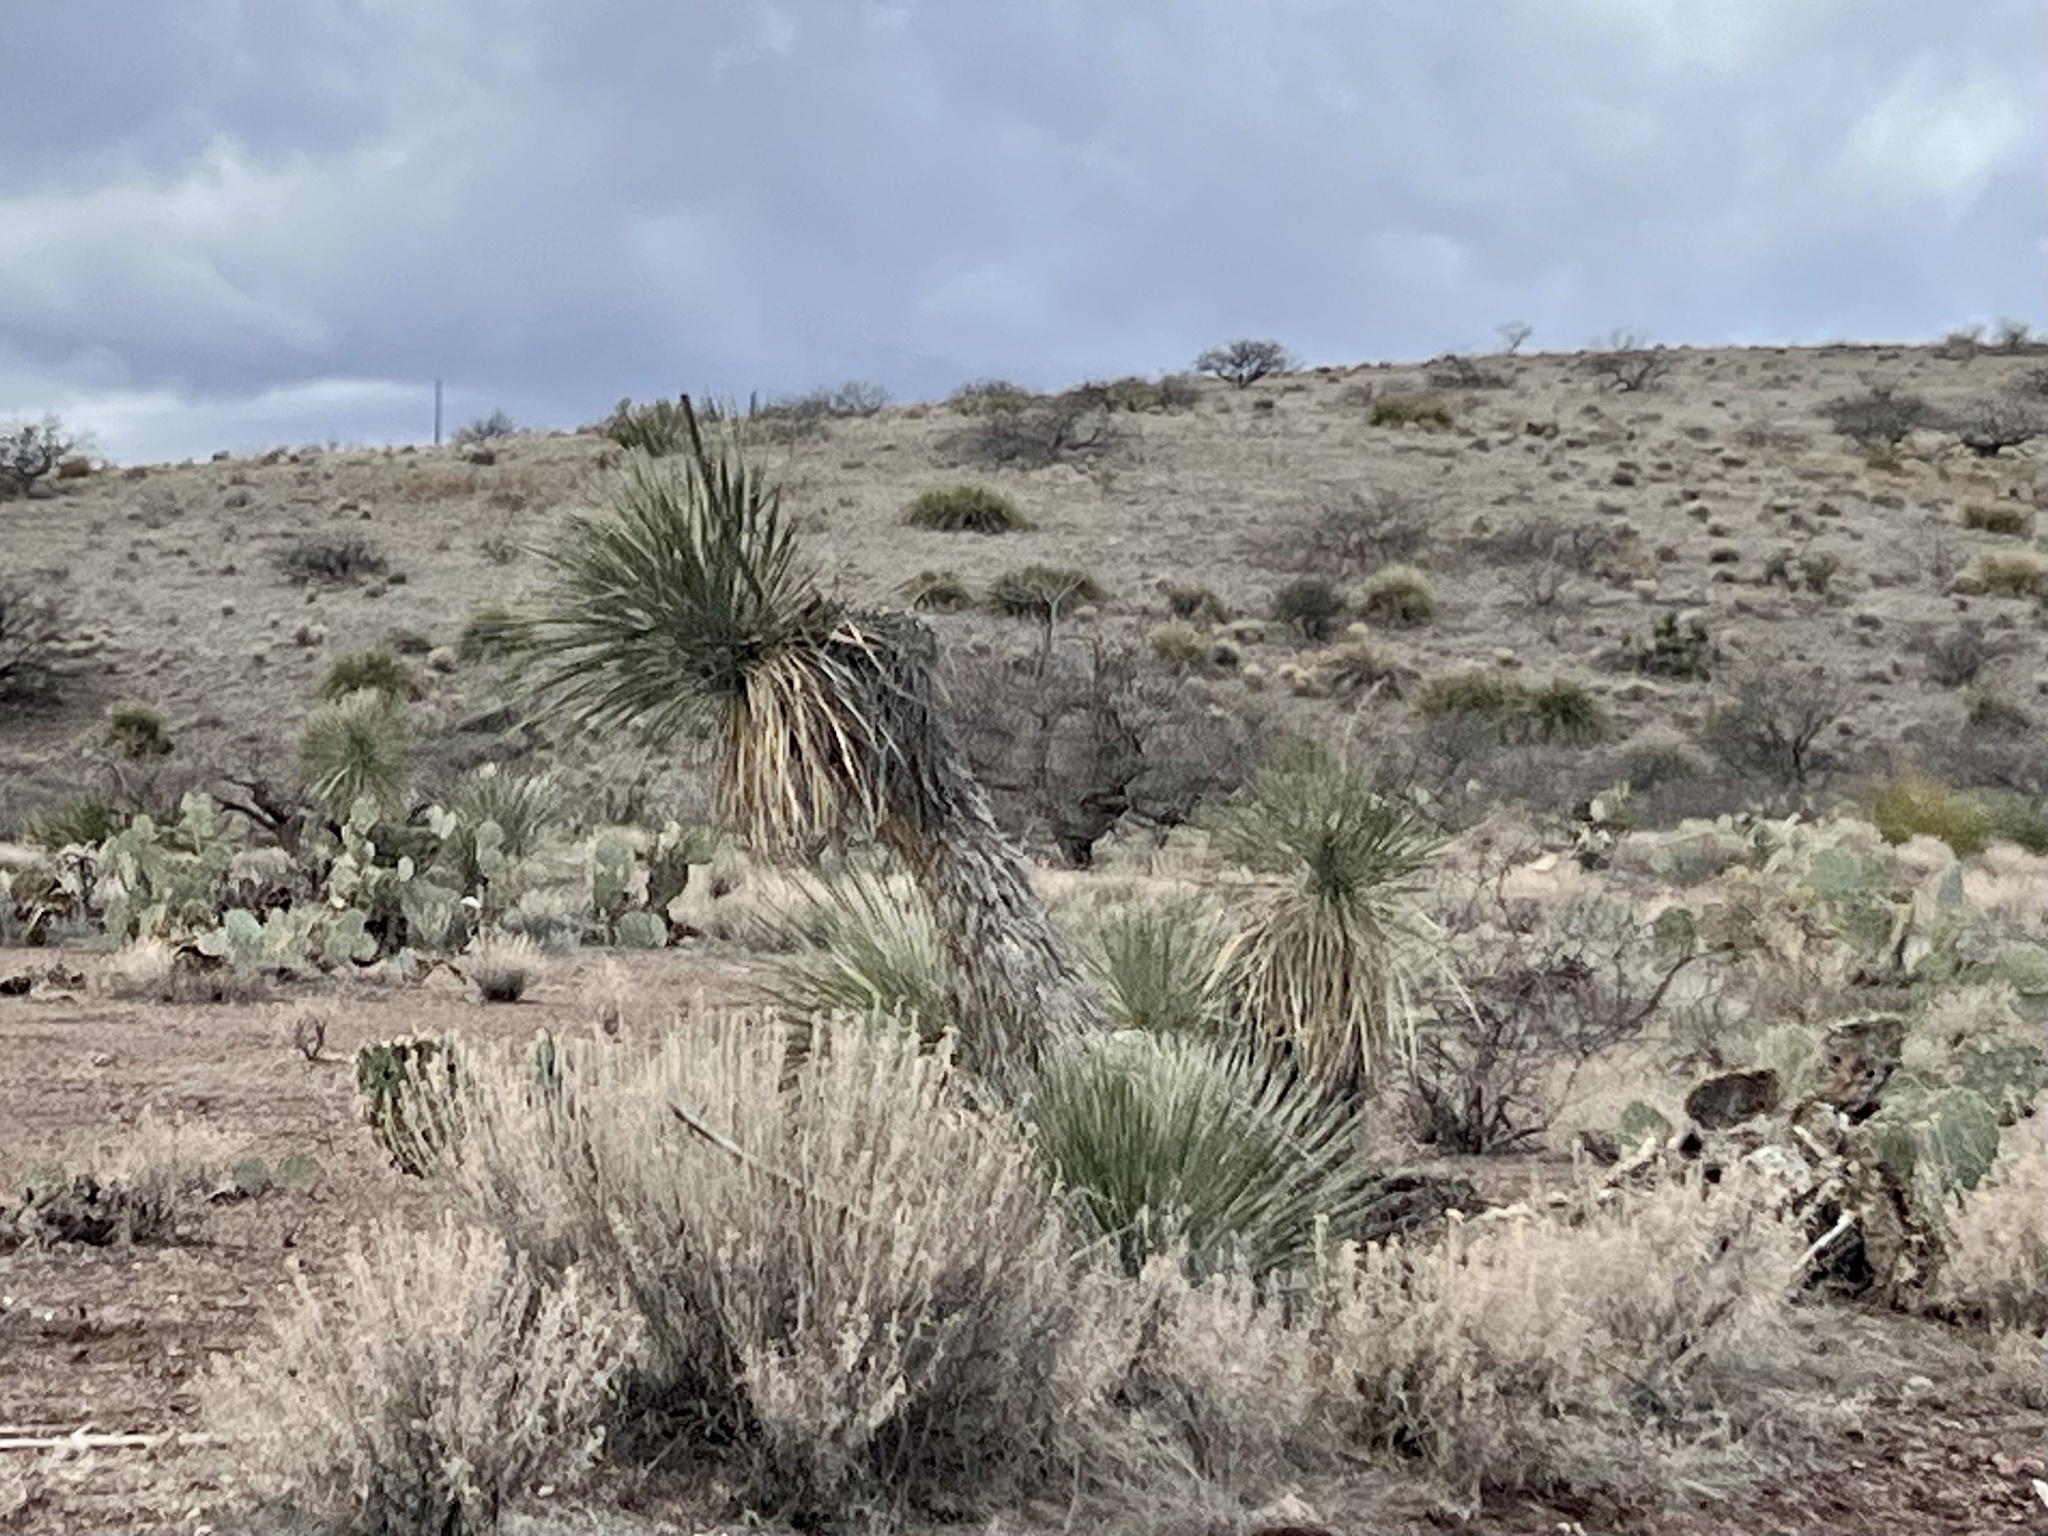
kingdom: Plantae
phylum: Tracheophyta
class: Liliopsida
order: Asparagales
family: Asparagaceae
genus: Yucca
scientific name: Yucca elata
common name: Palmella
